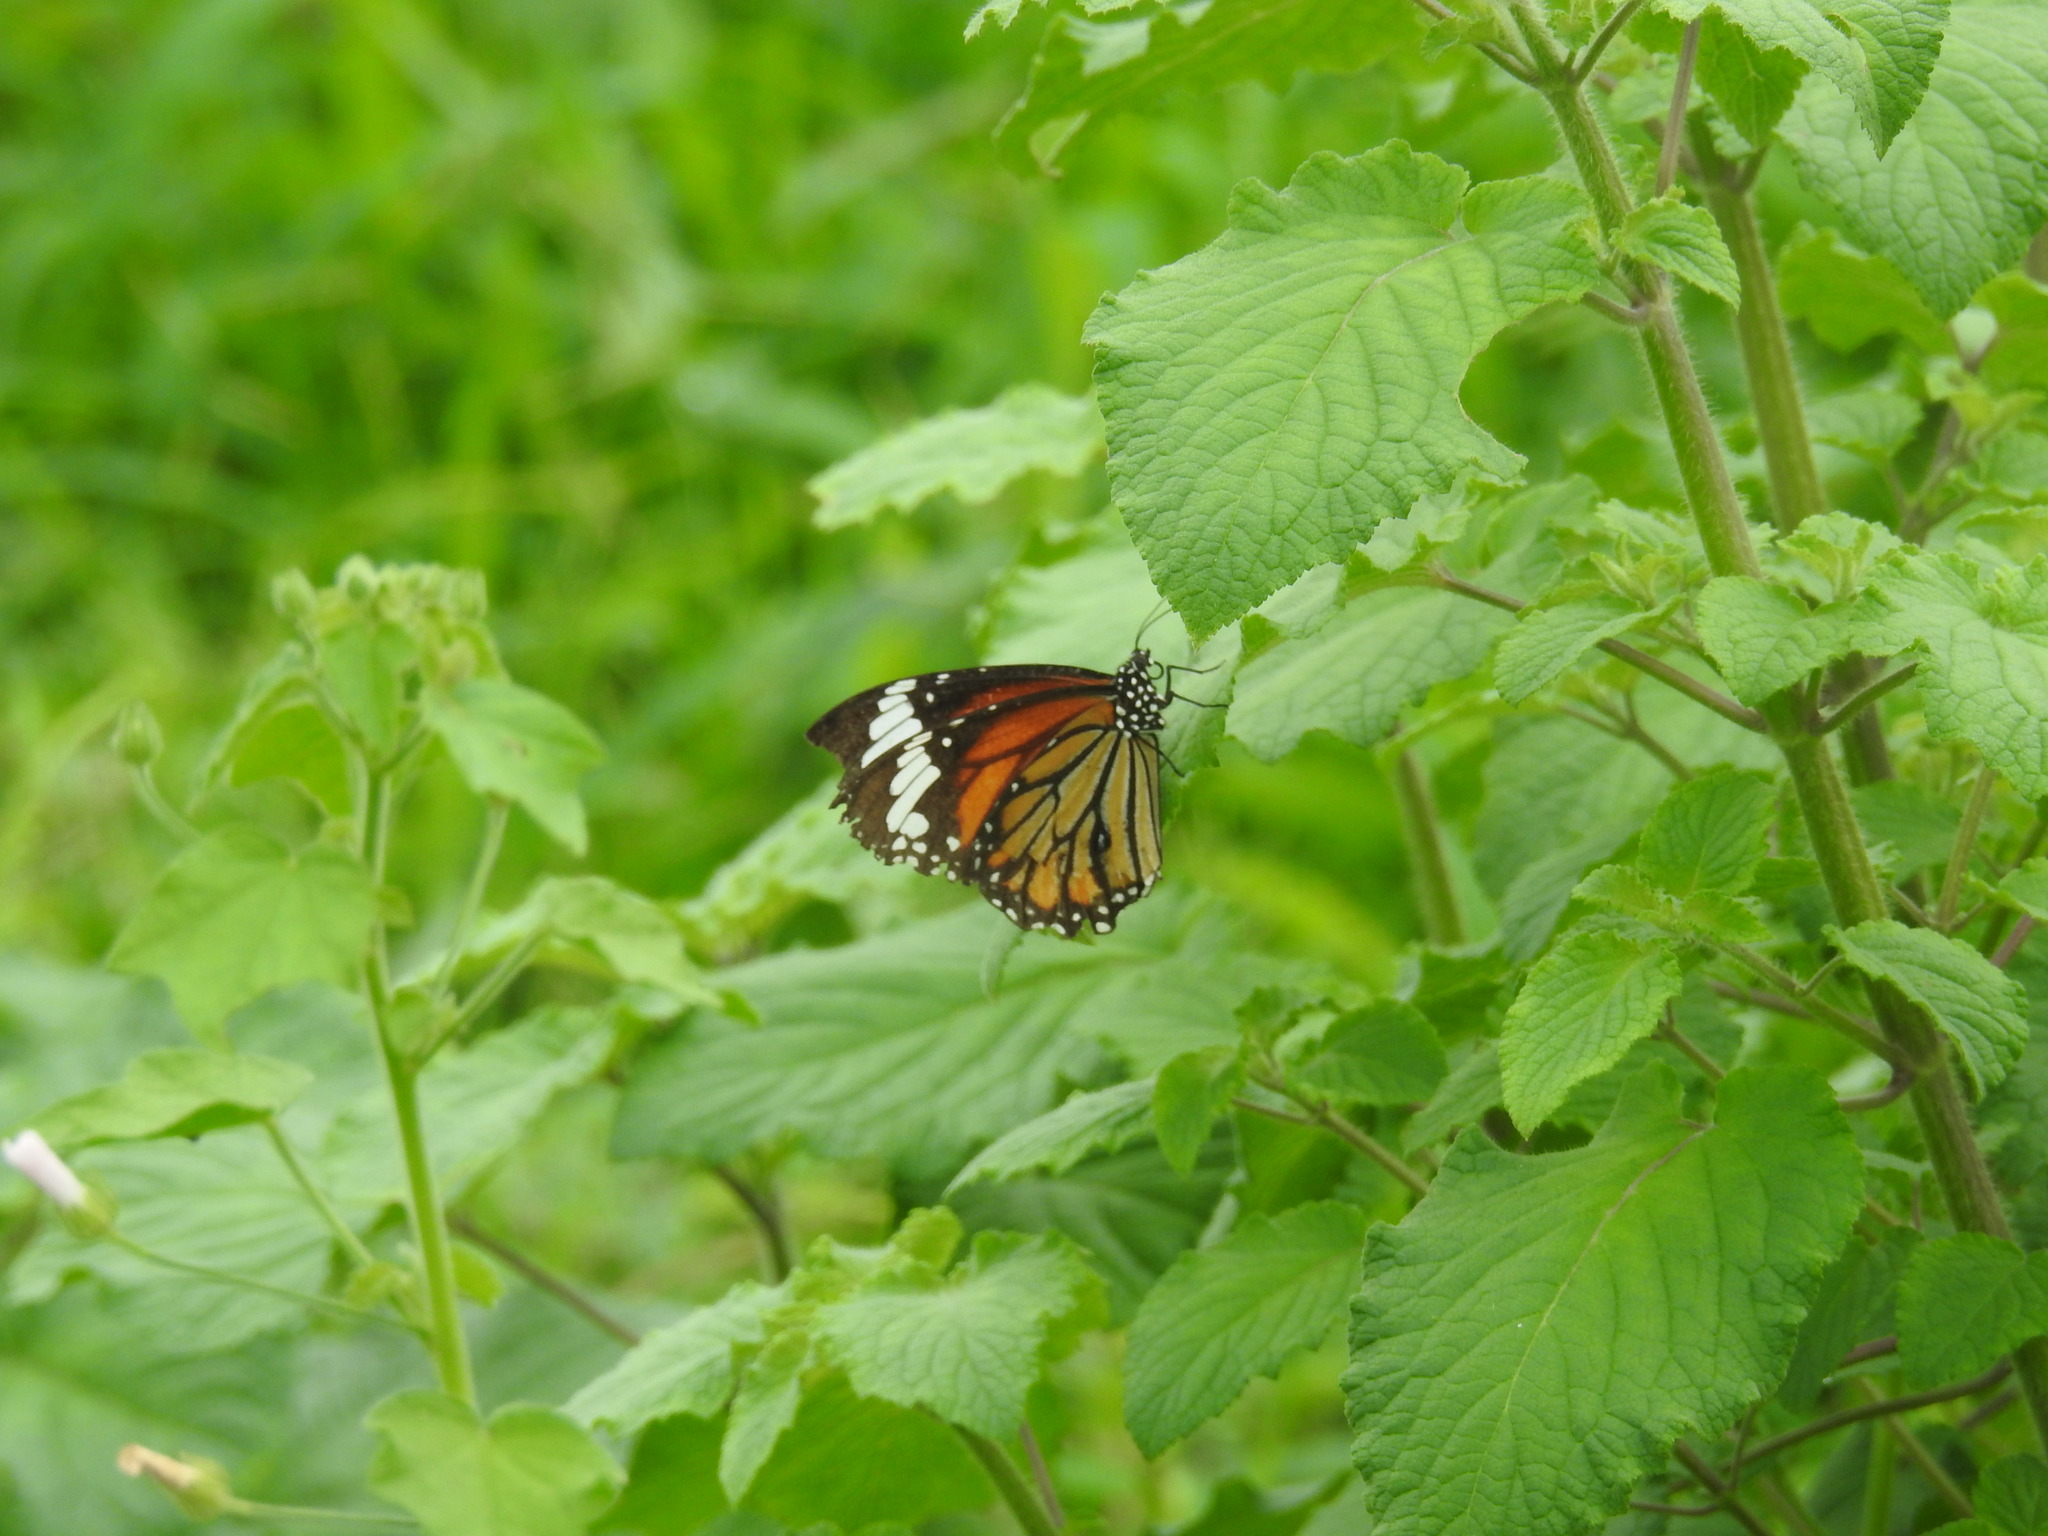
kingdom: Animalia
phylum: Arthropoda
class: Insecta
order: Lepidoptera
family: Nymphalidae
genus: Danaus
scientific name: Danaus genutia
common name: Common tiger butterfly
